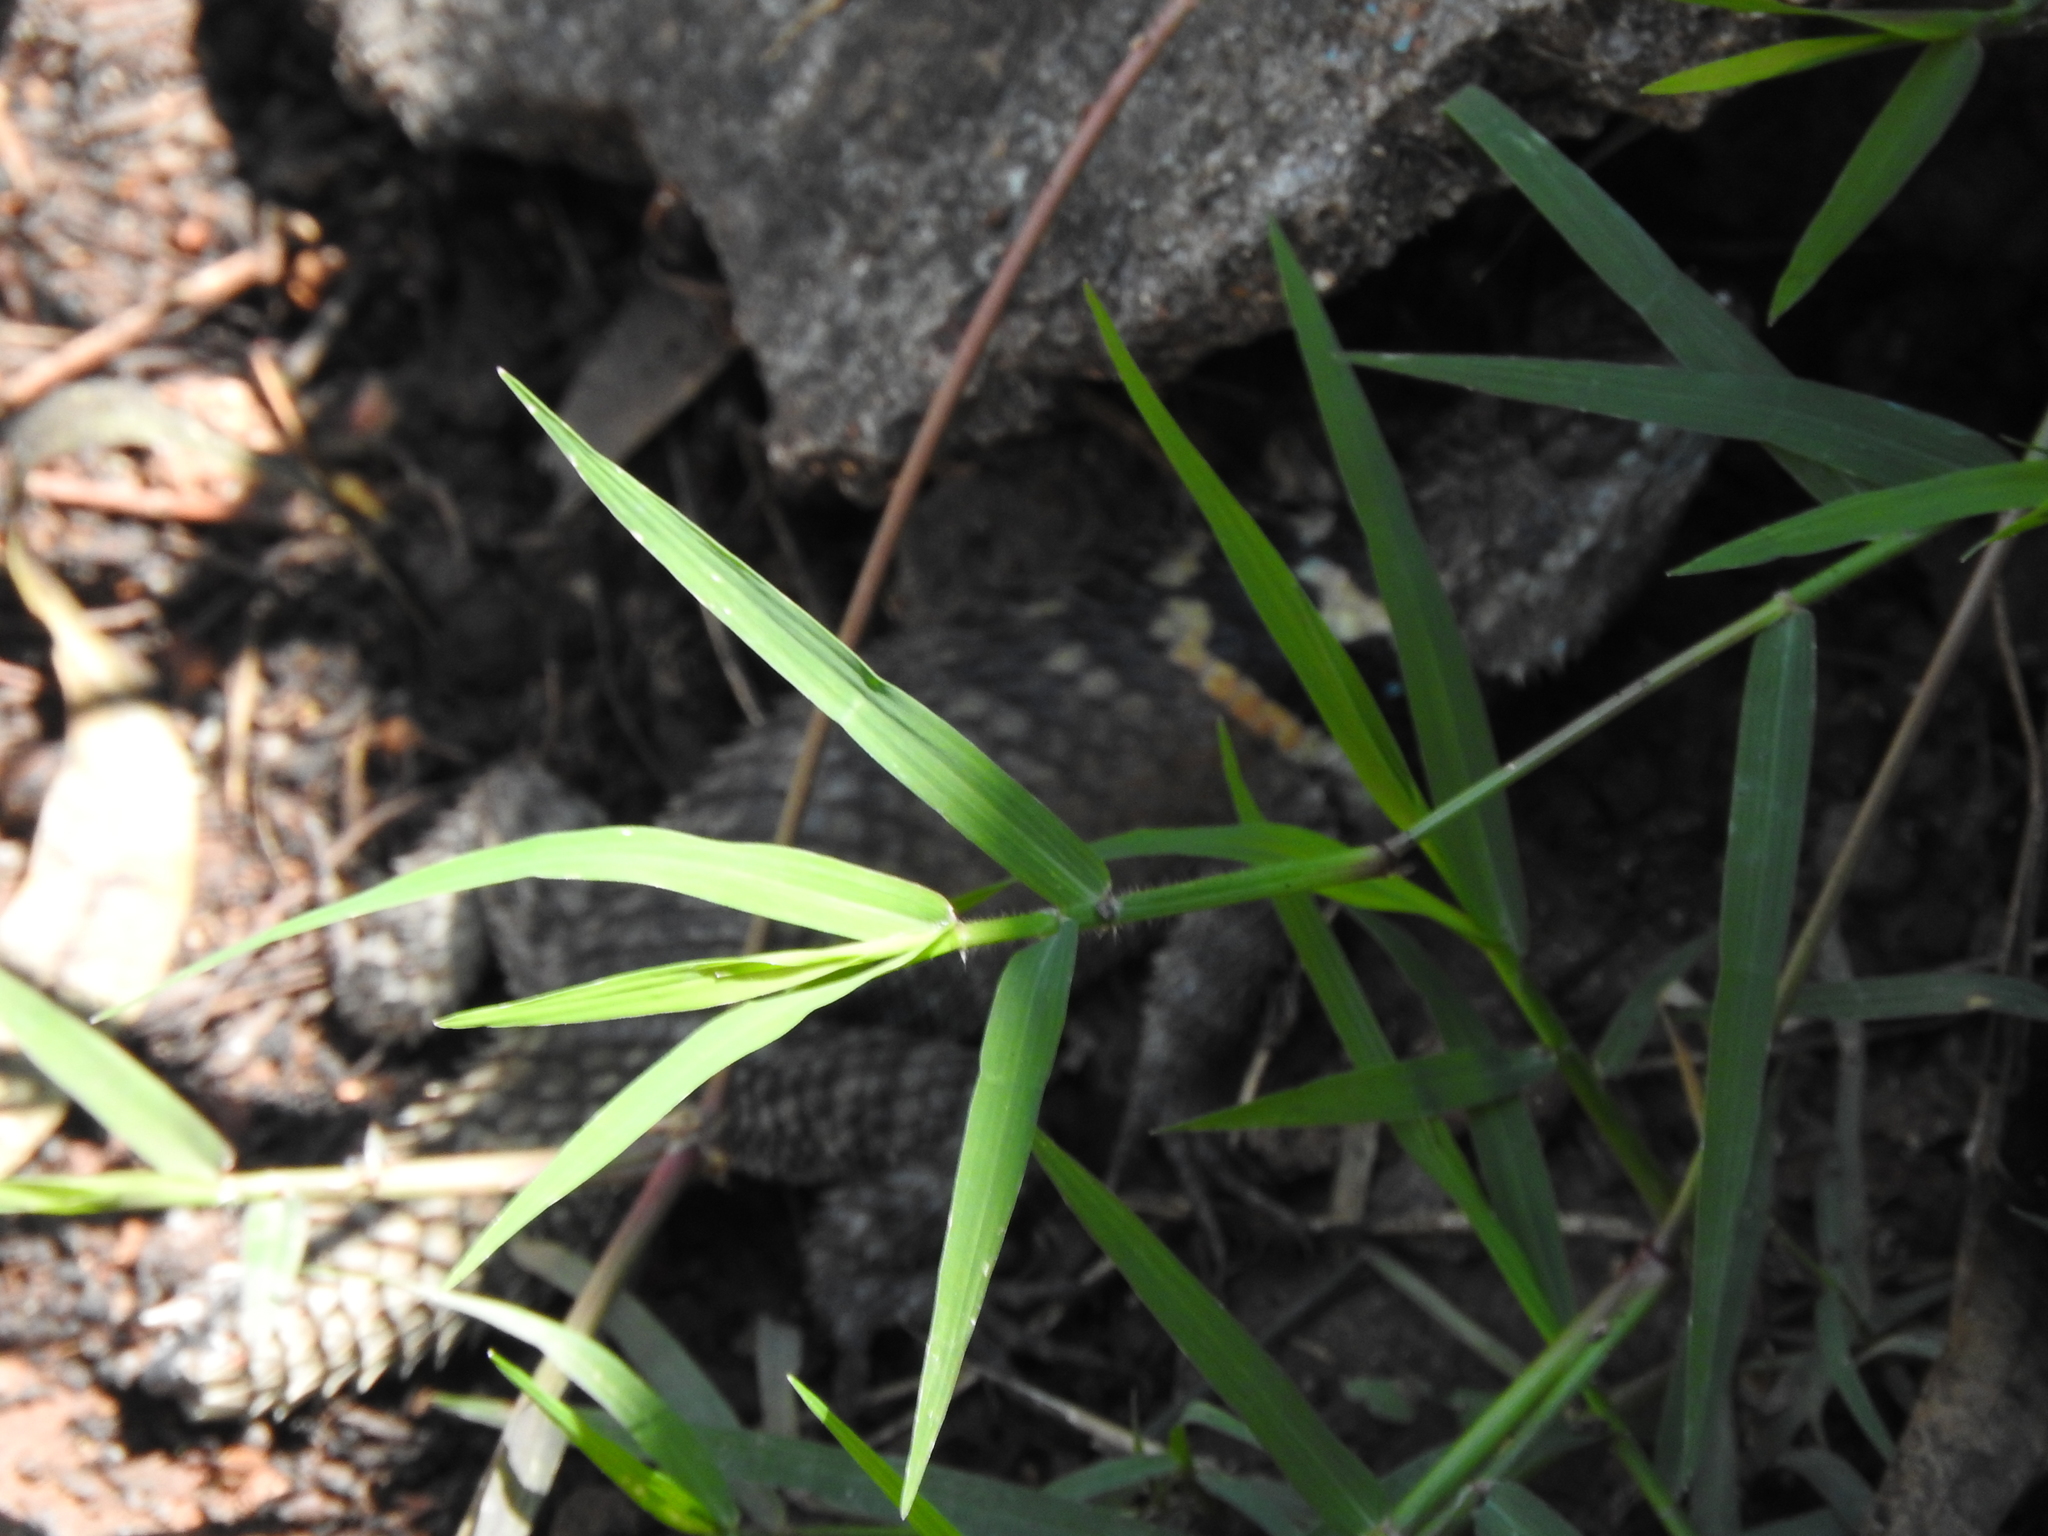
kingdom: Animalia
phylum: Chordata
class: Squamata
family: Phrynosomatidae
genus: Sceloporus
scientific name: Sceloporus torquatus
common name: Central plateau torquate lizard [melanogaster]
